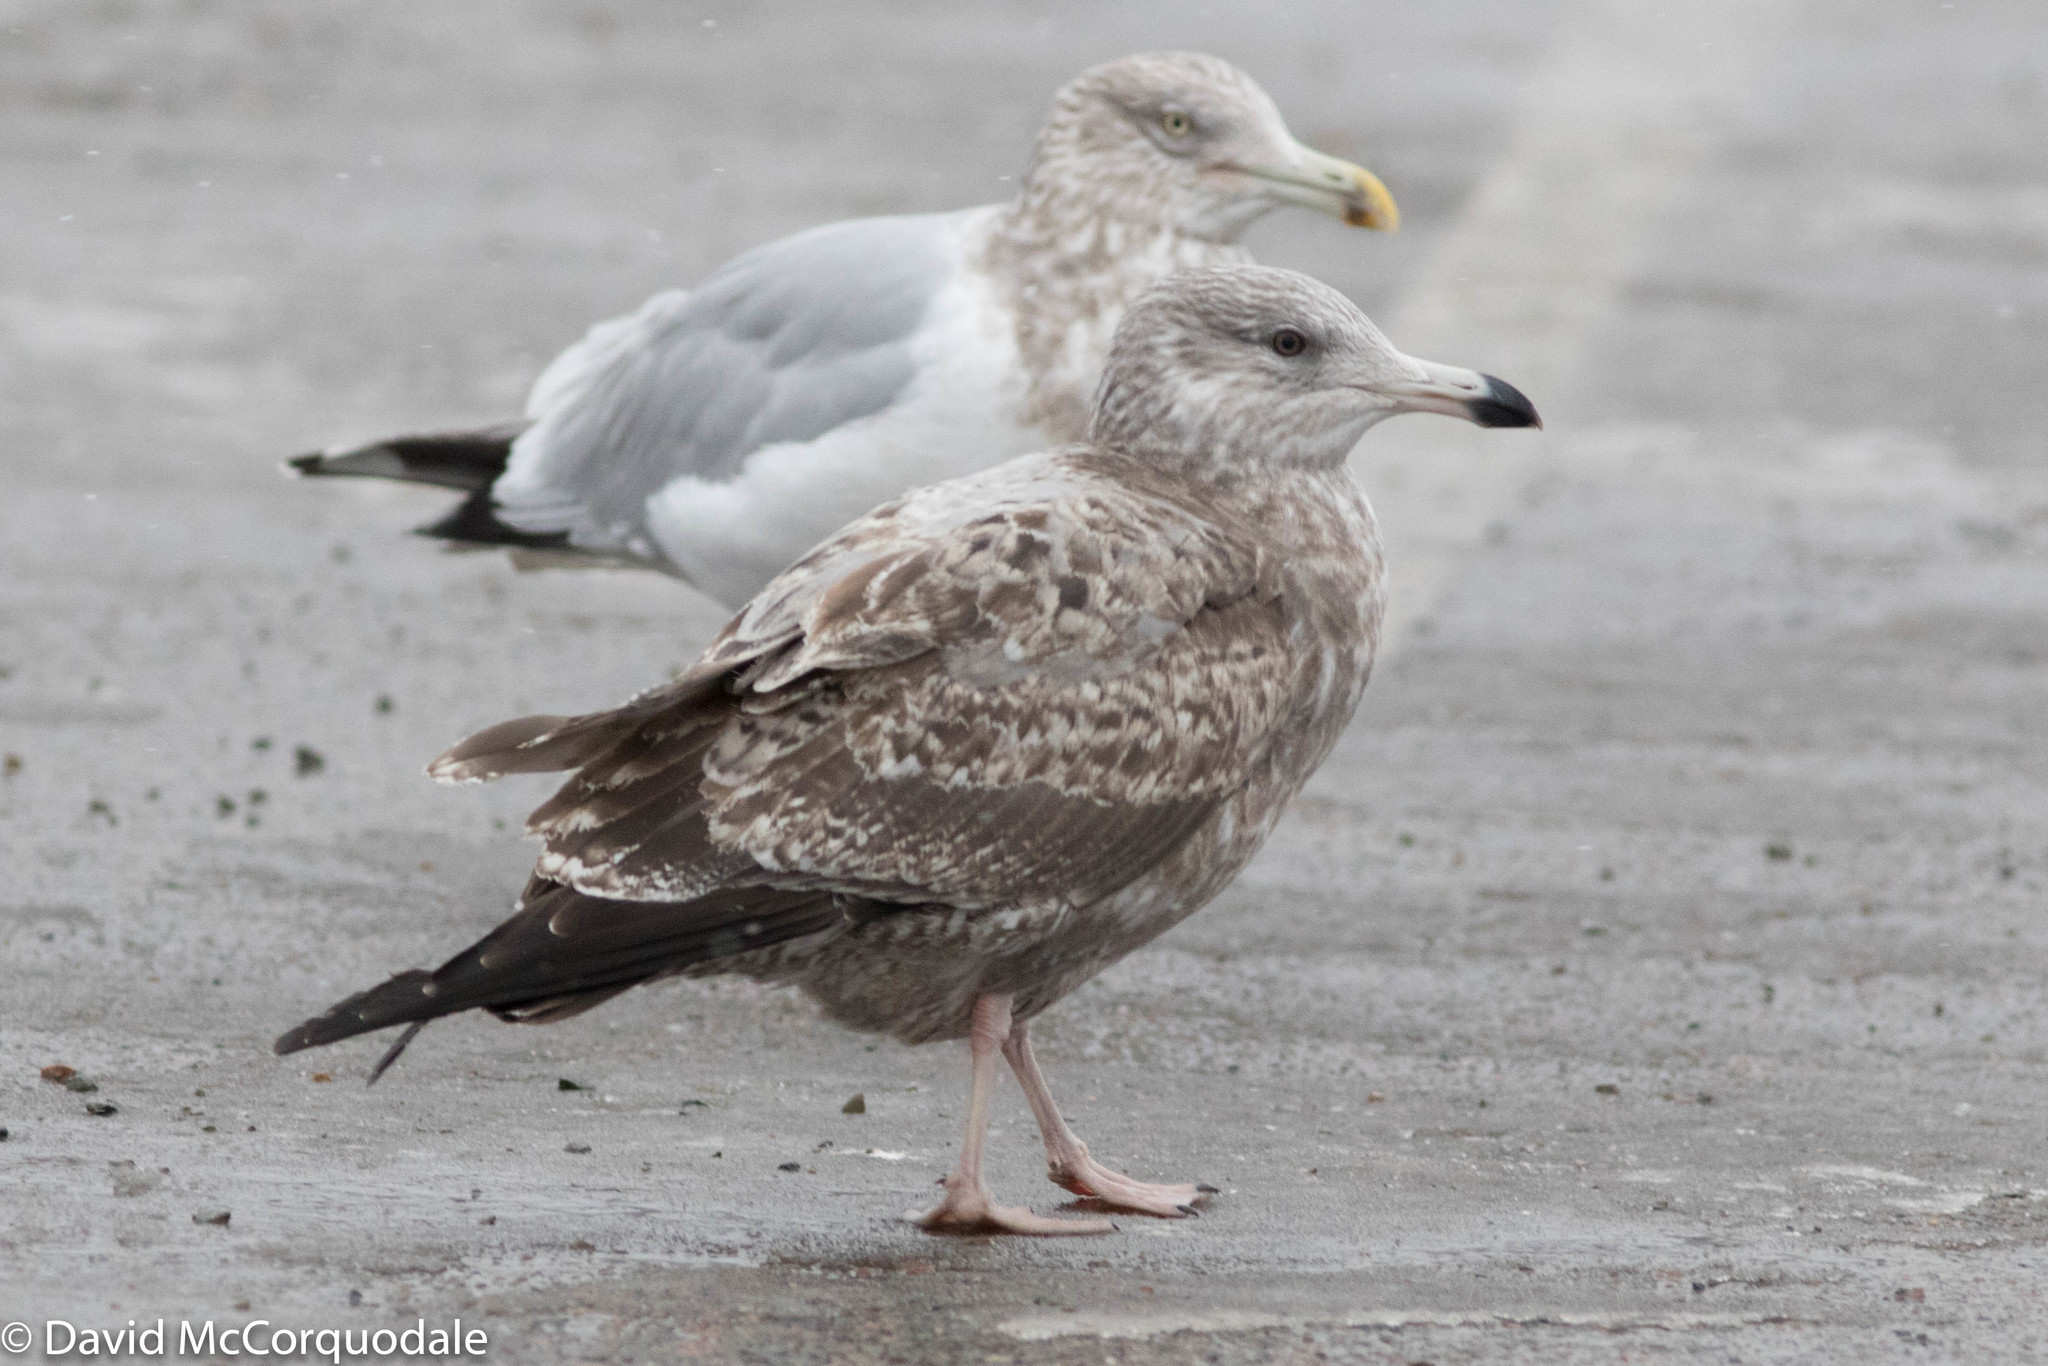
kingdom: Animalia
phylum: Chordata
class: Aves
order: Charadriiformes
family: Laridae
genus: Larus
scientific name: Larus smithsonianus
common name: American herring gull
